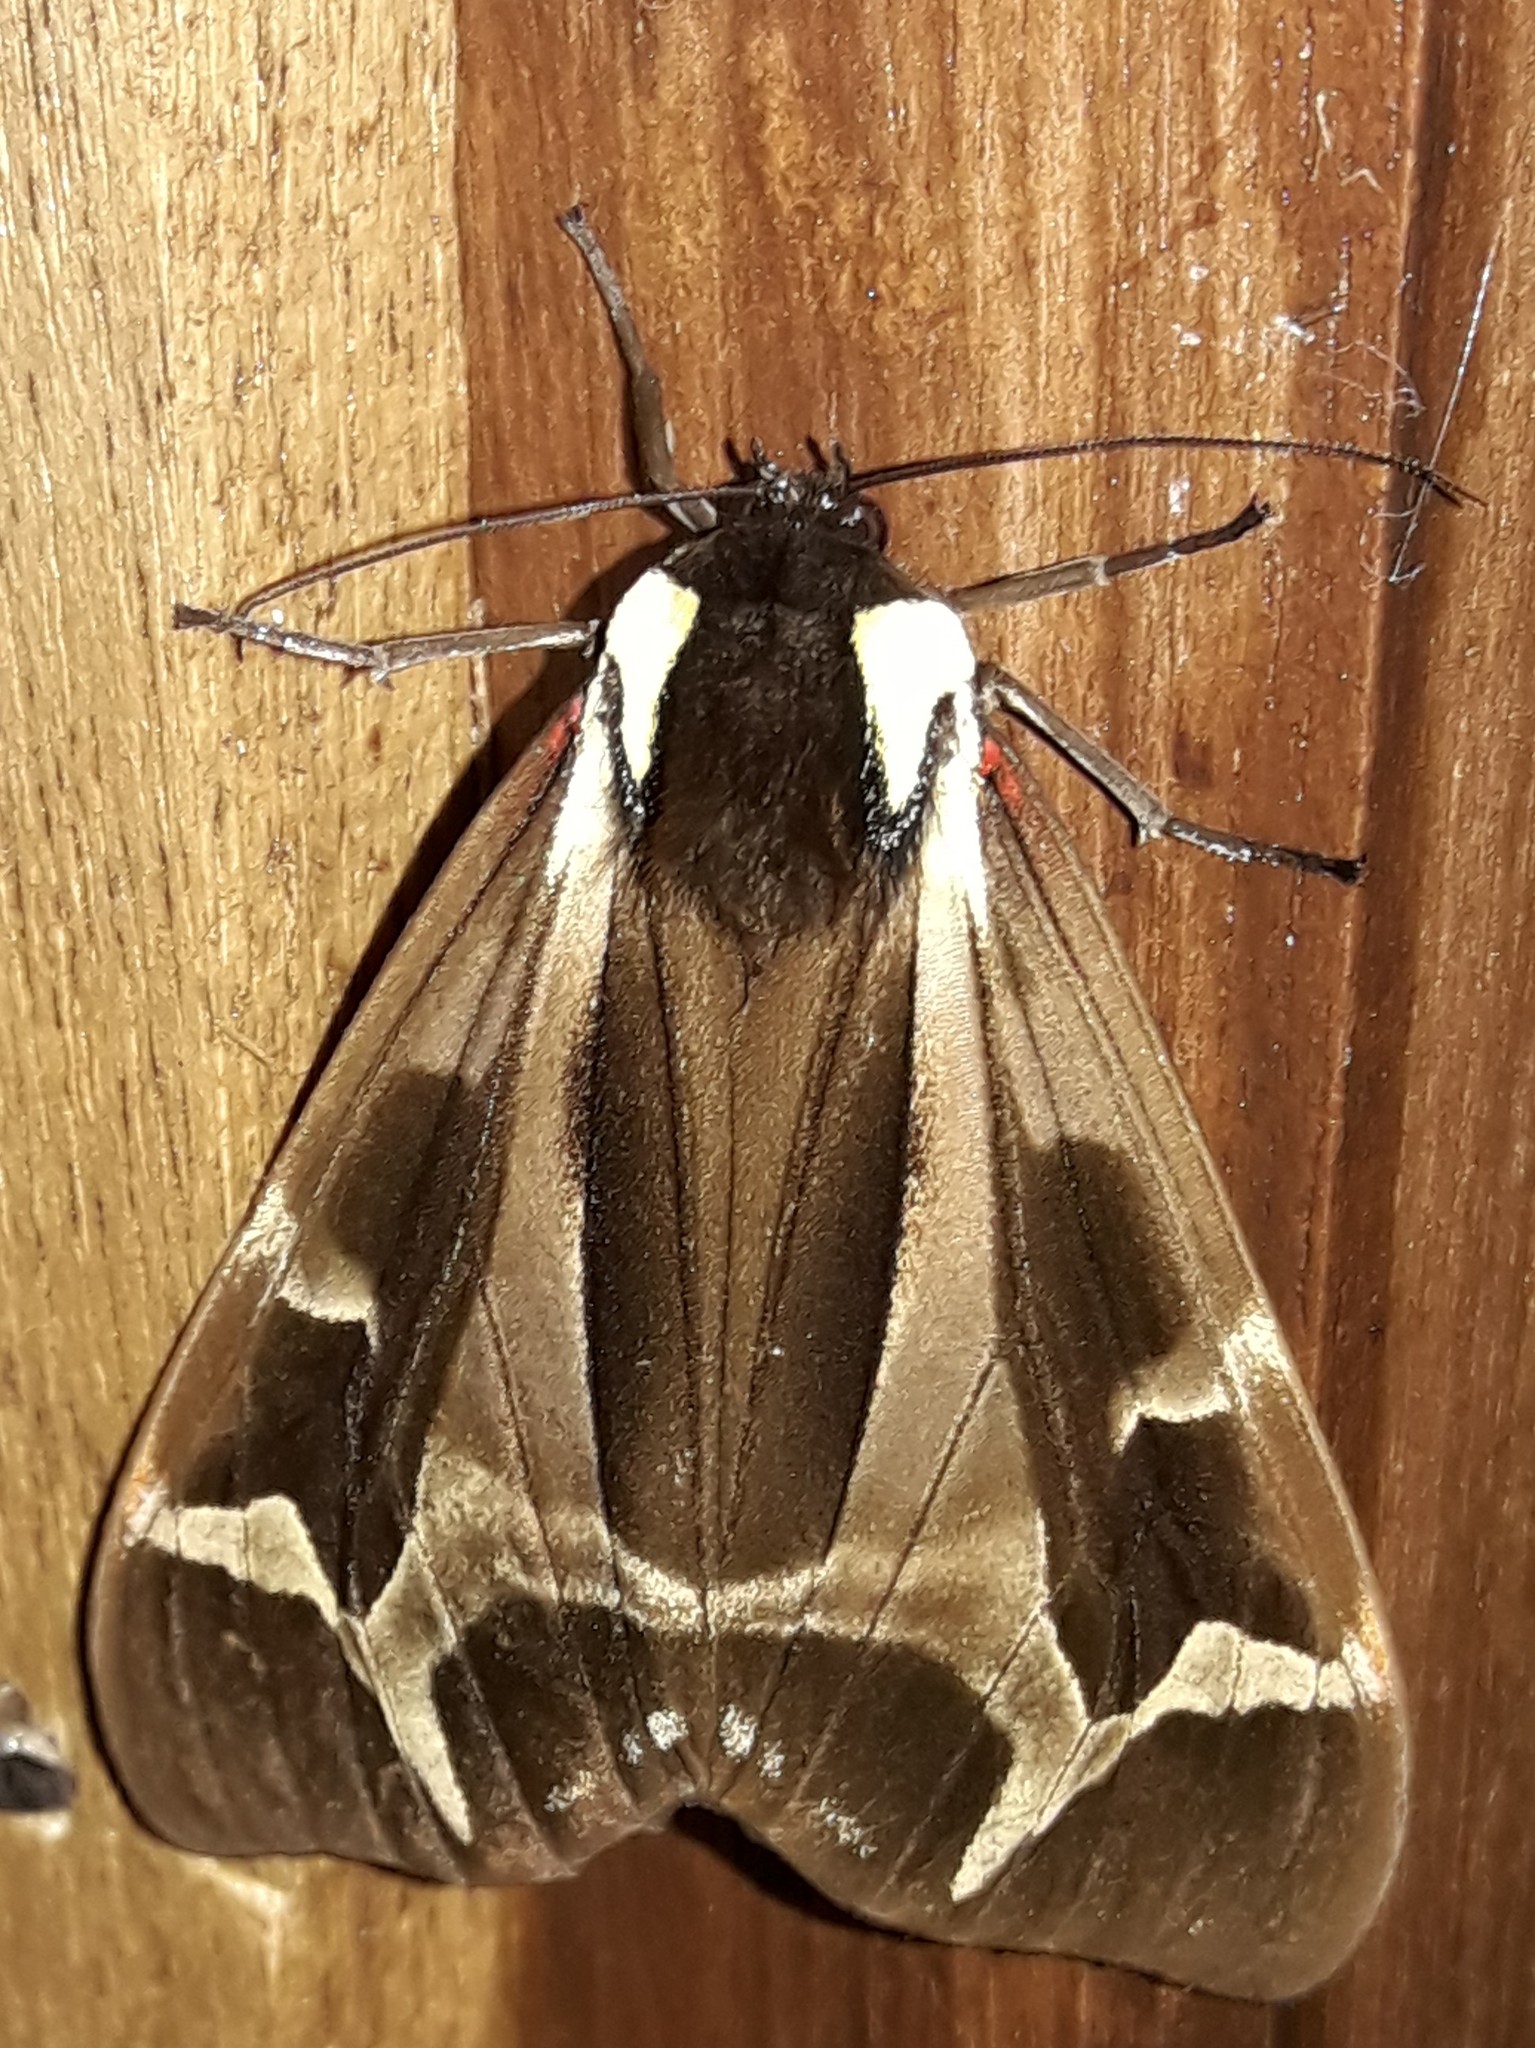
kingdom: Animalia
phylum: Arthropoda
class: Insecta
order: Lepidoptera
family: Erebidae
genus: Dysschema
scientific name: Dysschema mariamne
